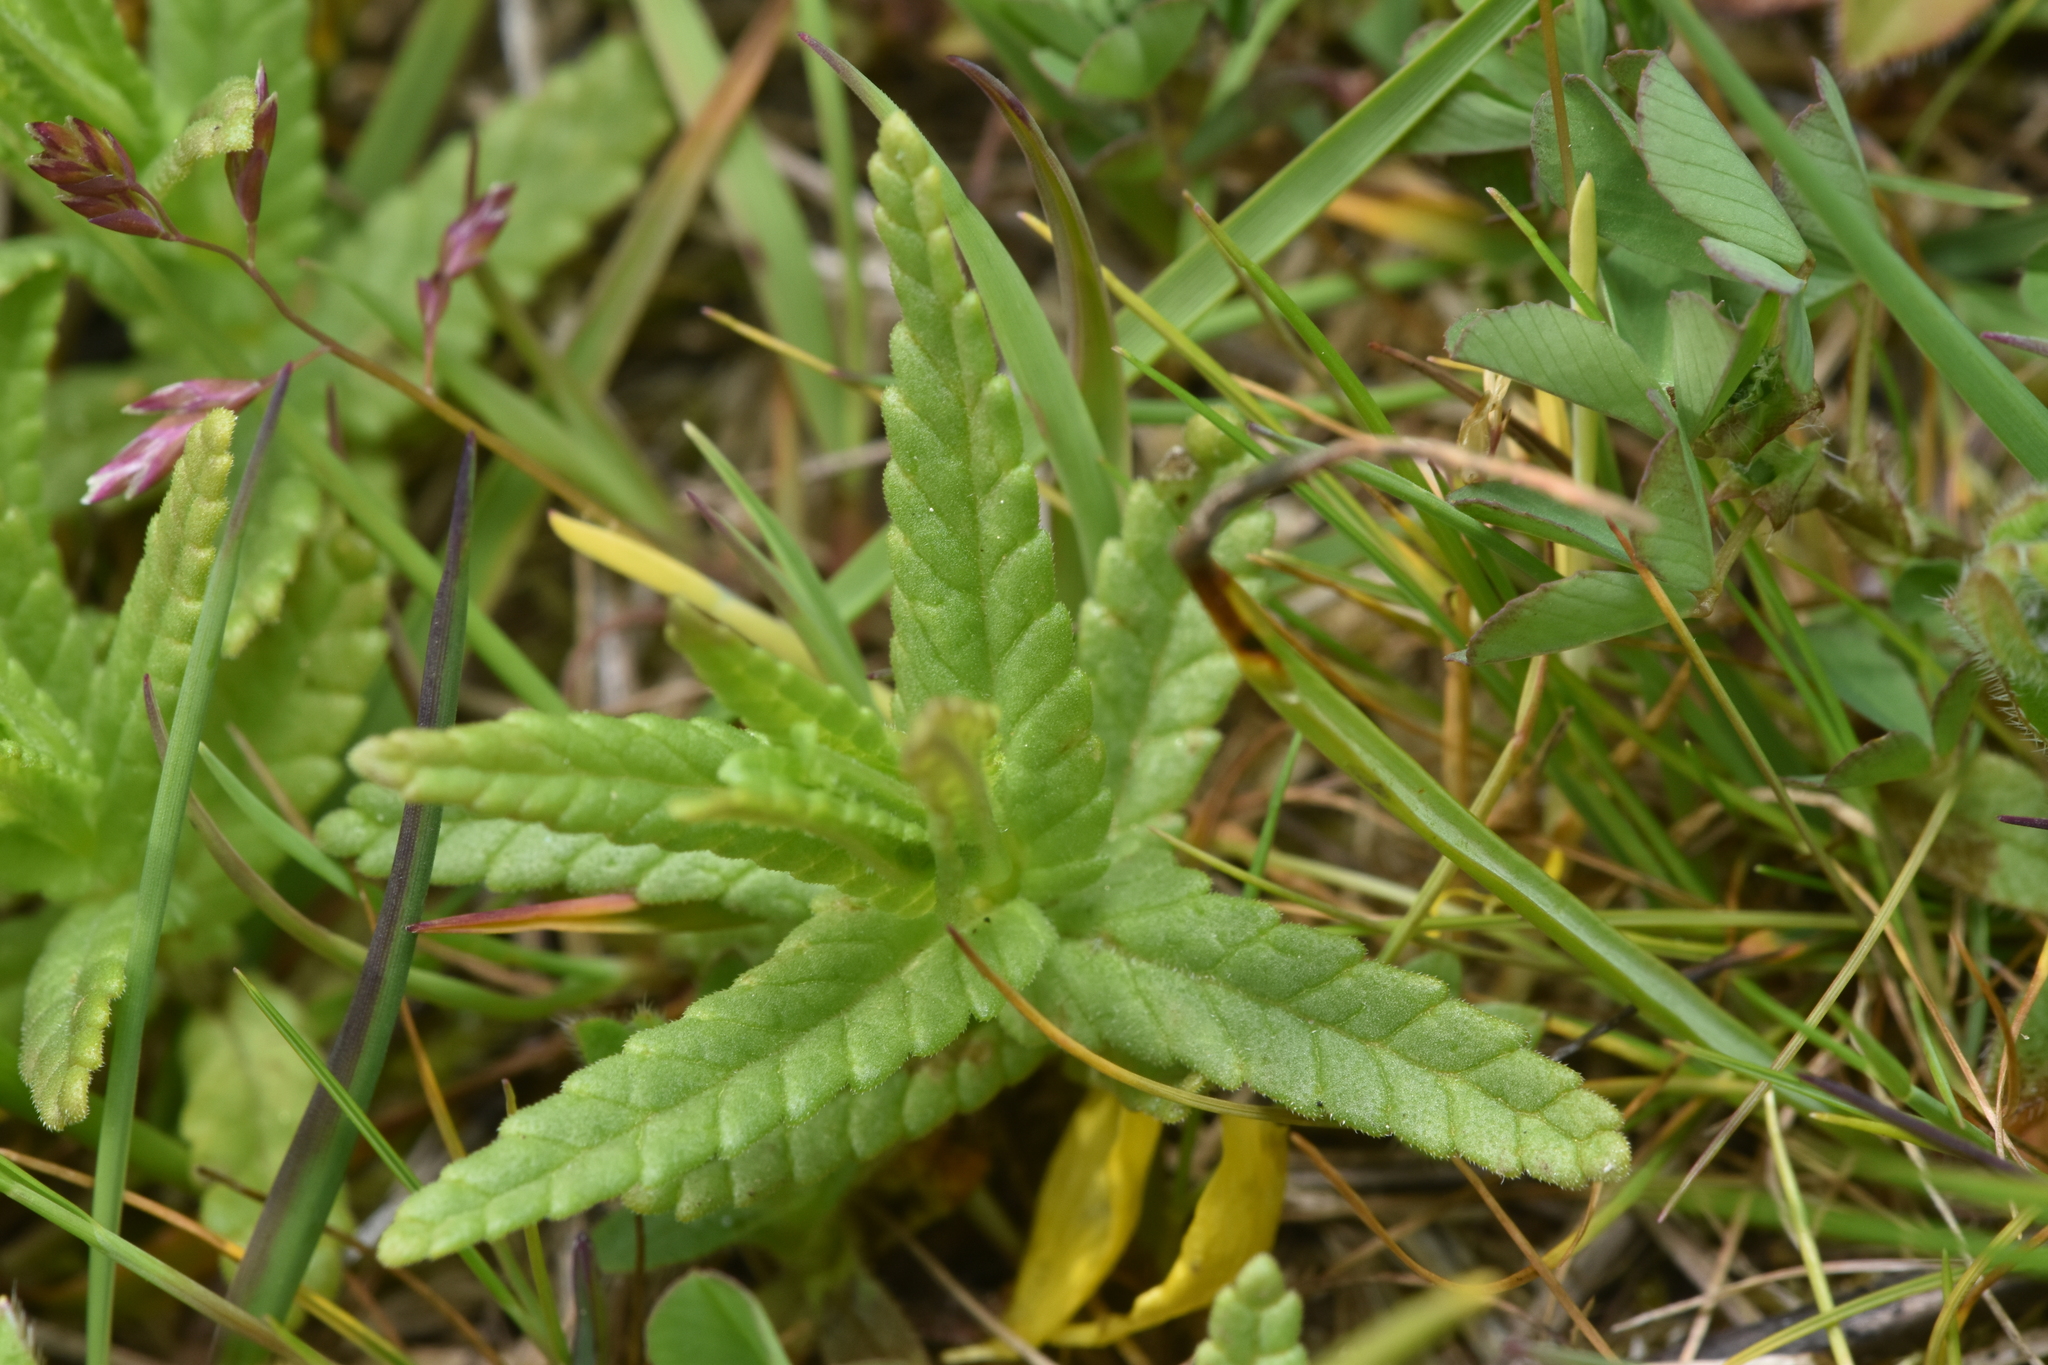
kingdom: Plantae
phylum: Tracheophyta
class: Magnoliopsida
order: Lamiales
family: Orobanchaceae
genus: Rhinanthus
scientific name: Rhinanthus minor
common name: Yellow-rattle
